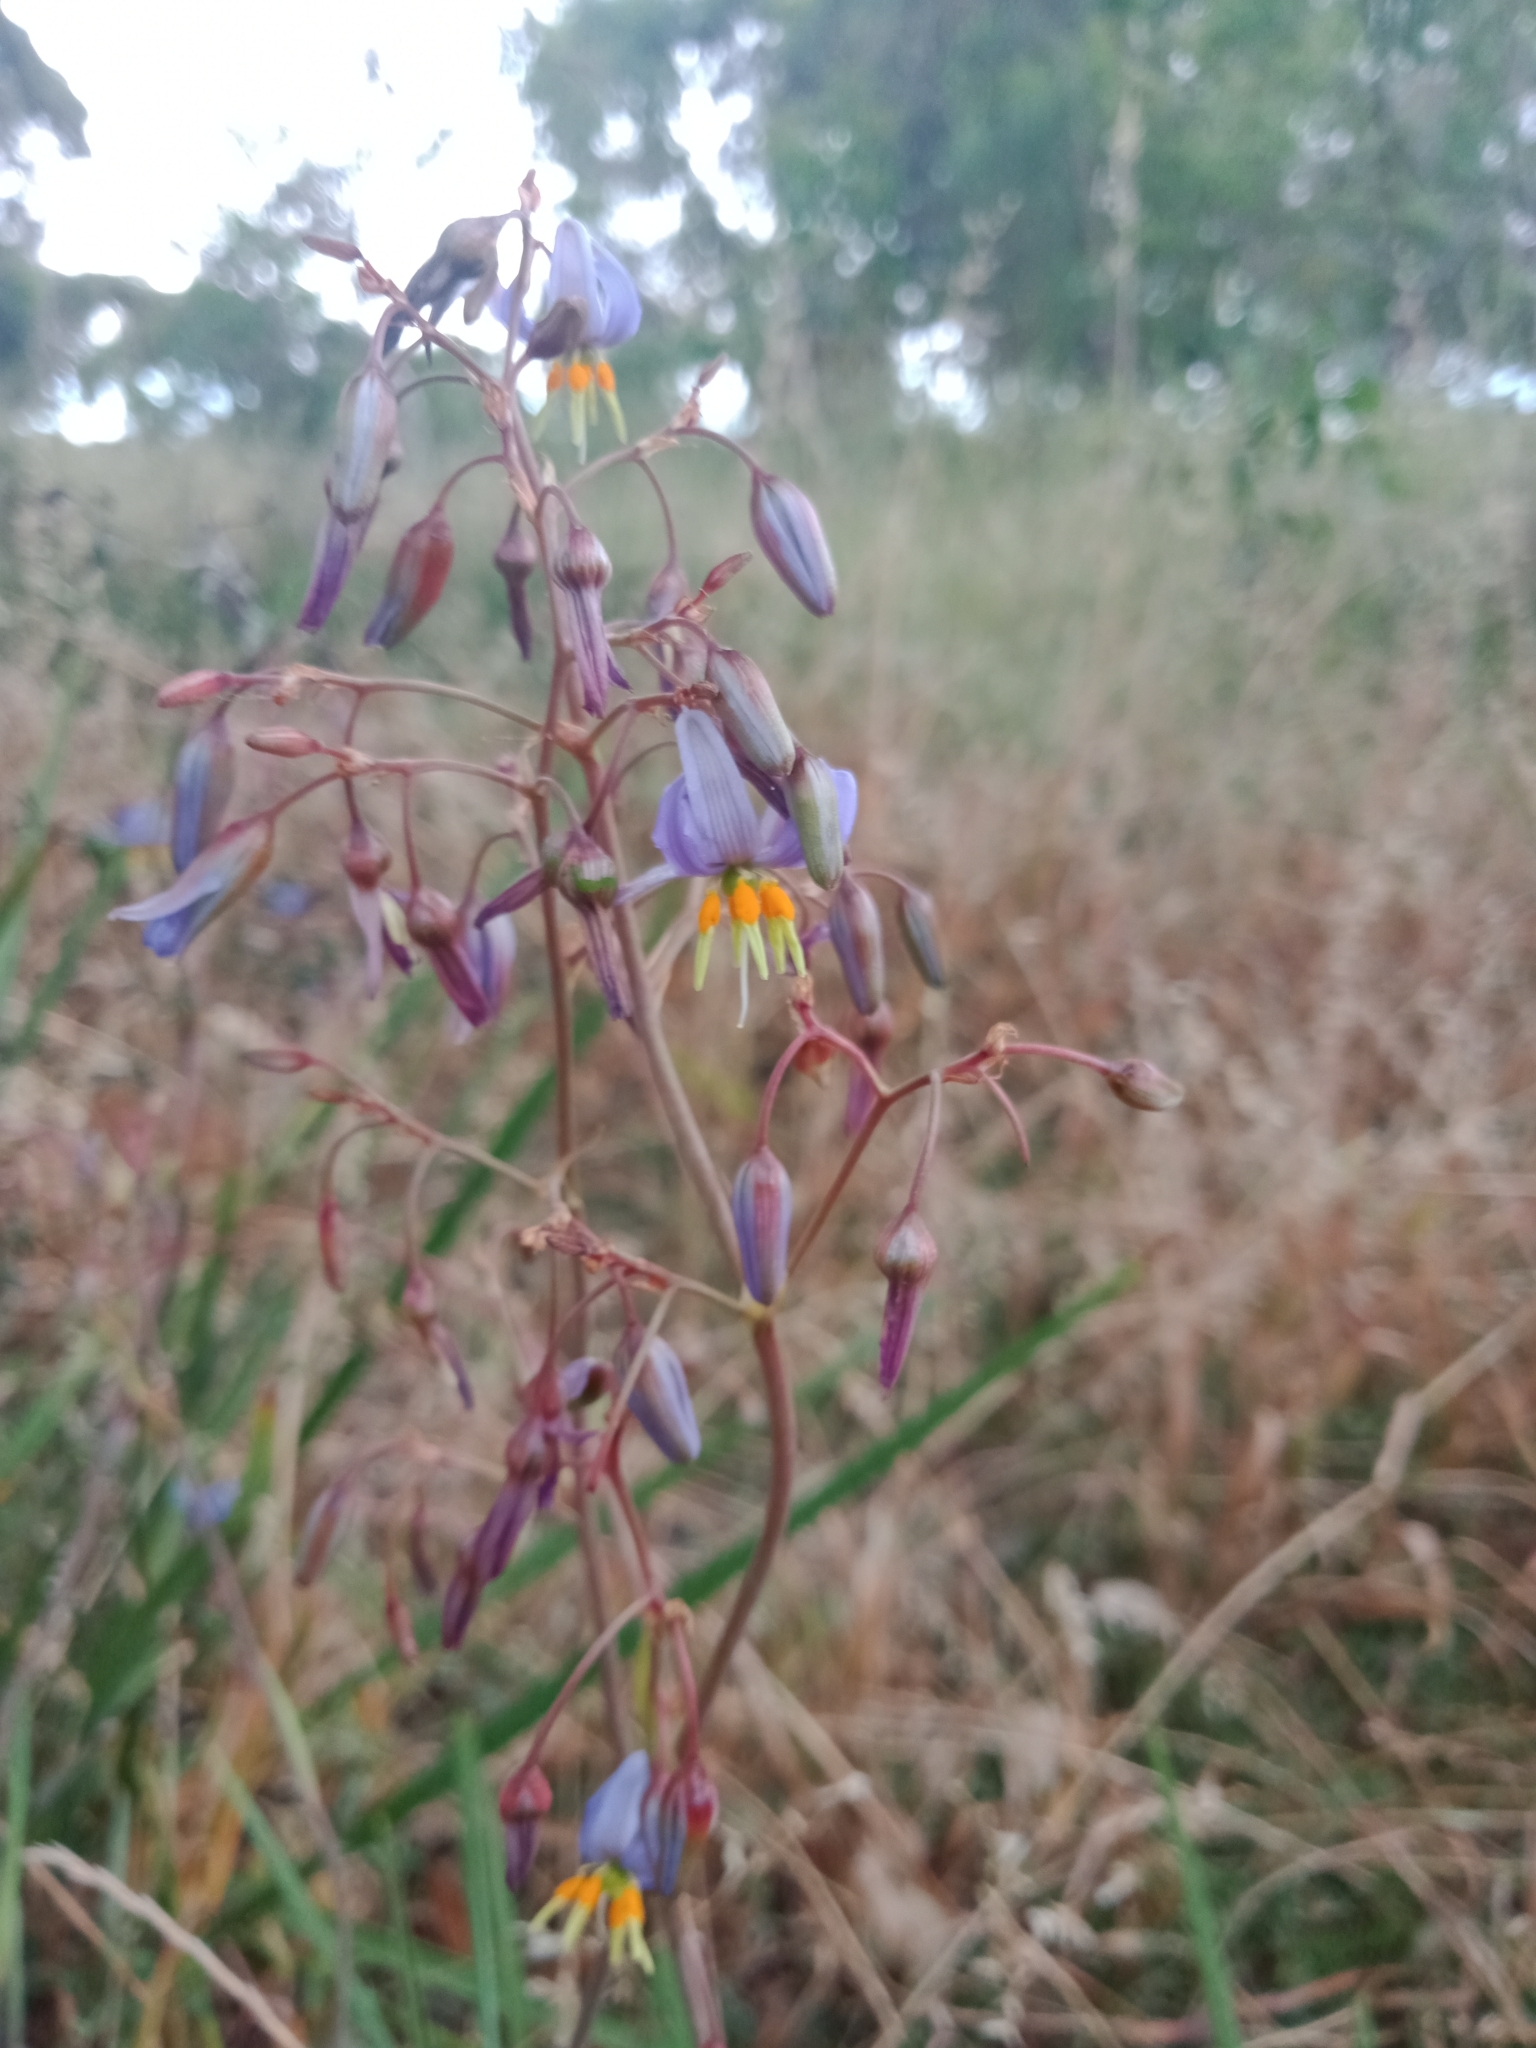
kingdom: Plantae
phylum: Tracheophyta
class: Liliopsida
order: Asparagales
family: Asphodelaceae
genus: Dianella
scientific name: Dianella amoena
